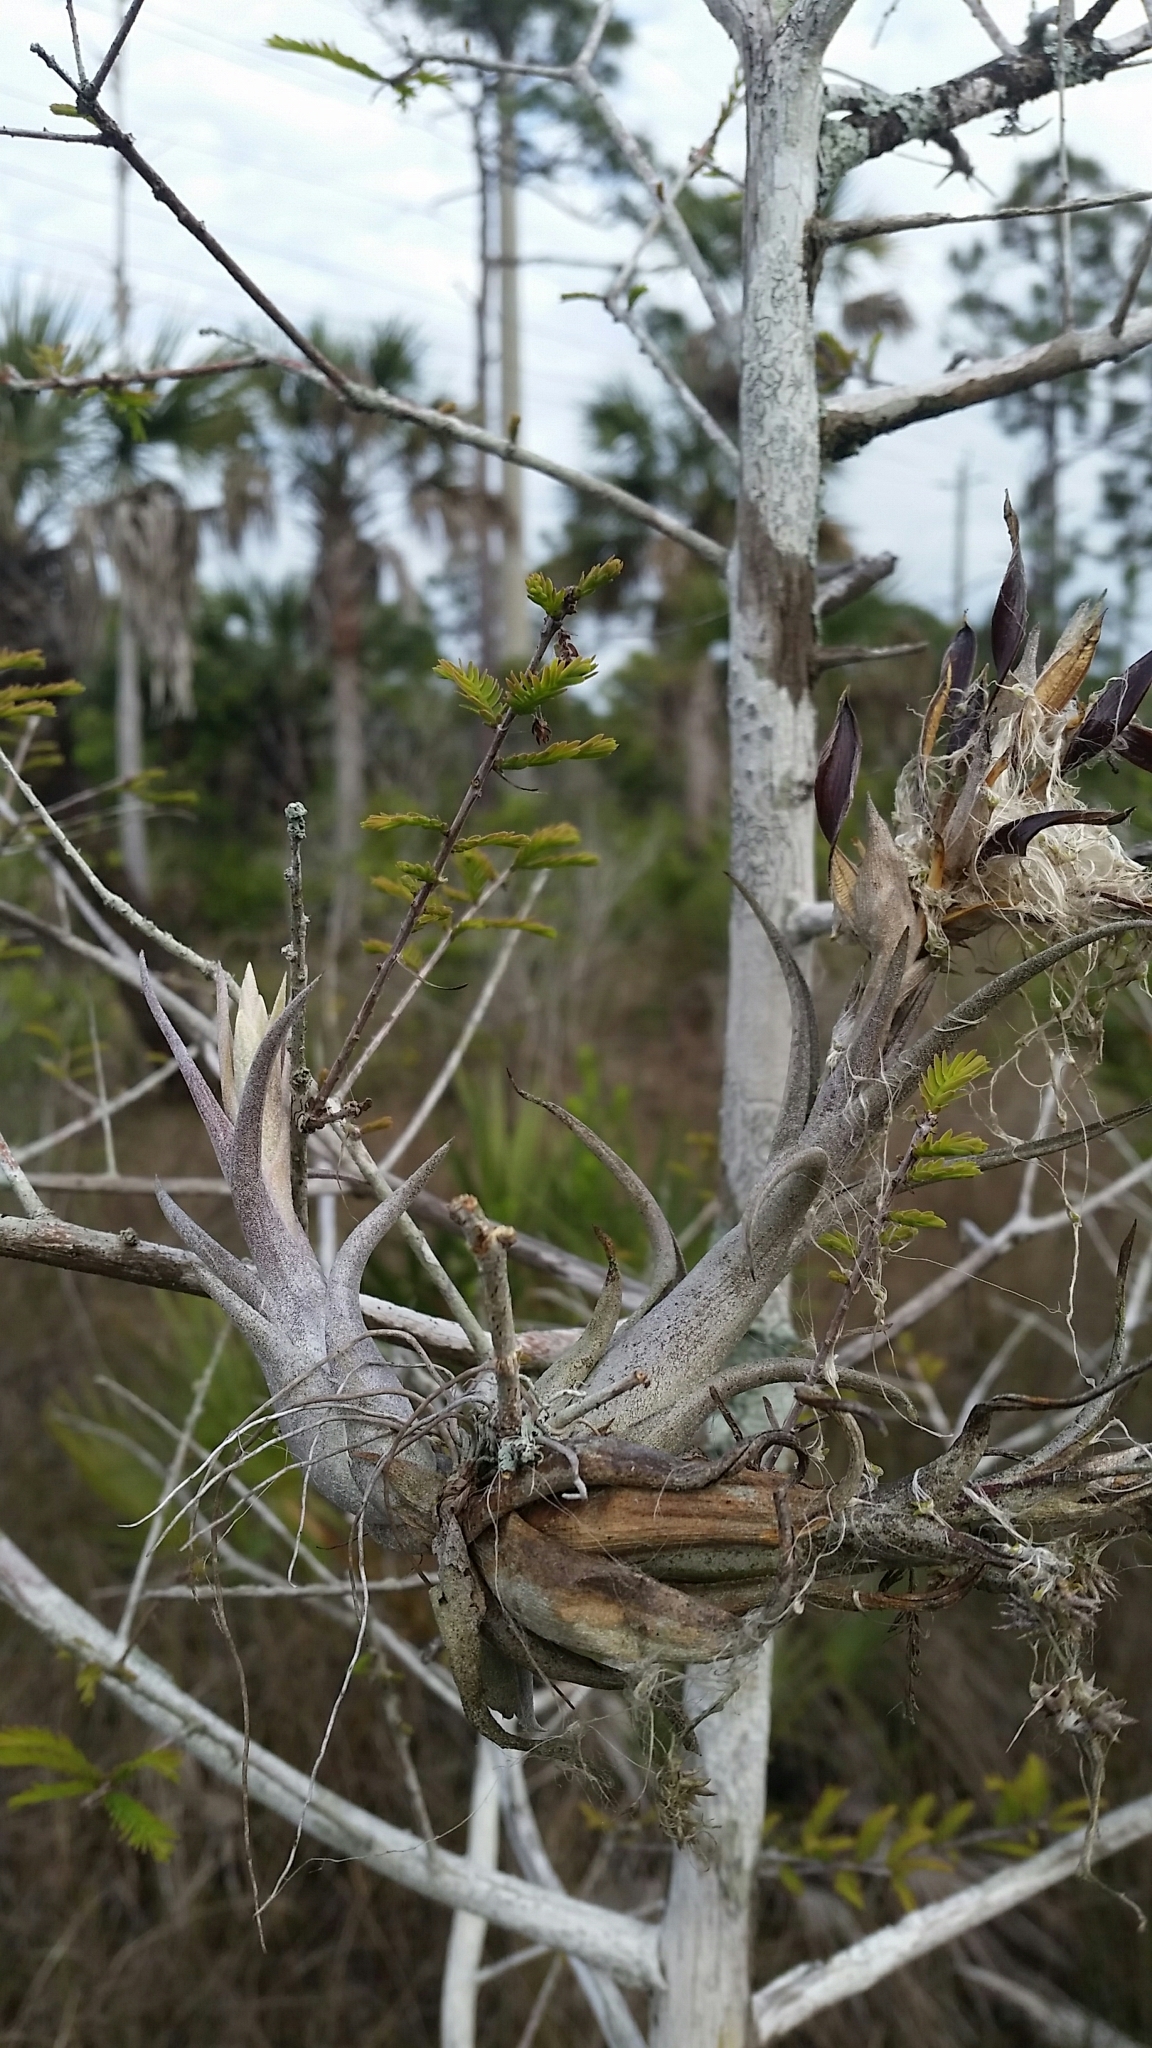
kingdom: Plantae
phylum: Tracheophyta
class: Liliopsida
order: Poales
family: Bromeliaceae
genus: Tillandsia
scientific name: Tillandsia paucifolia
